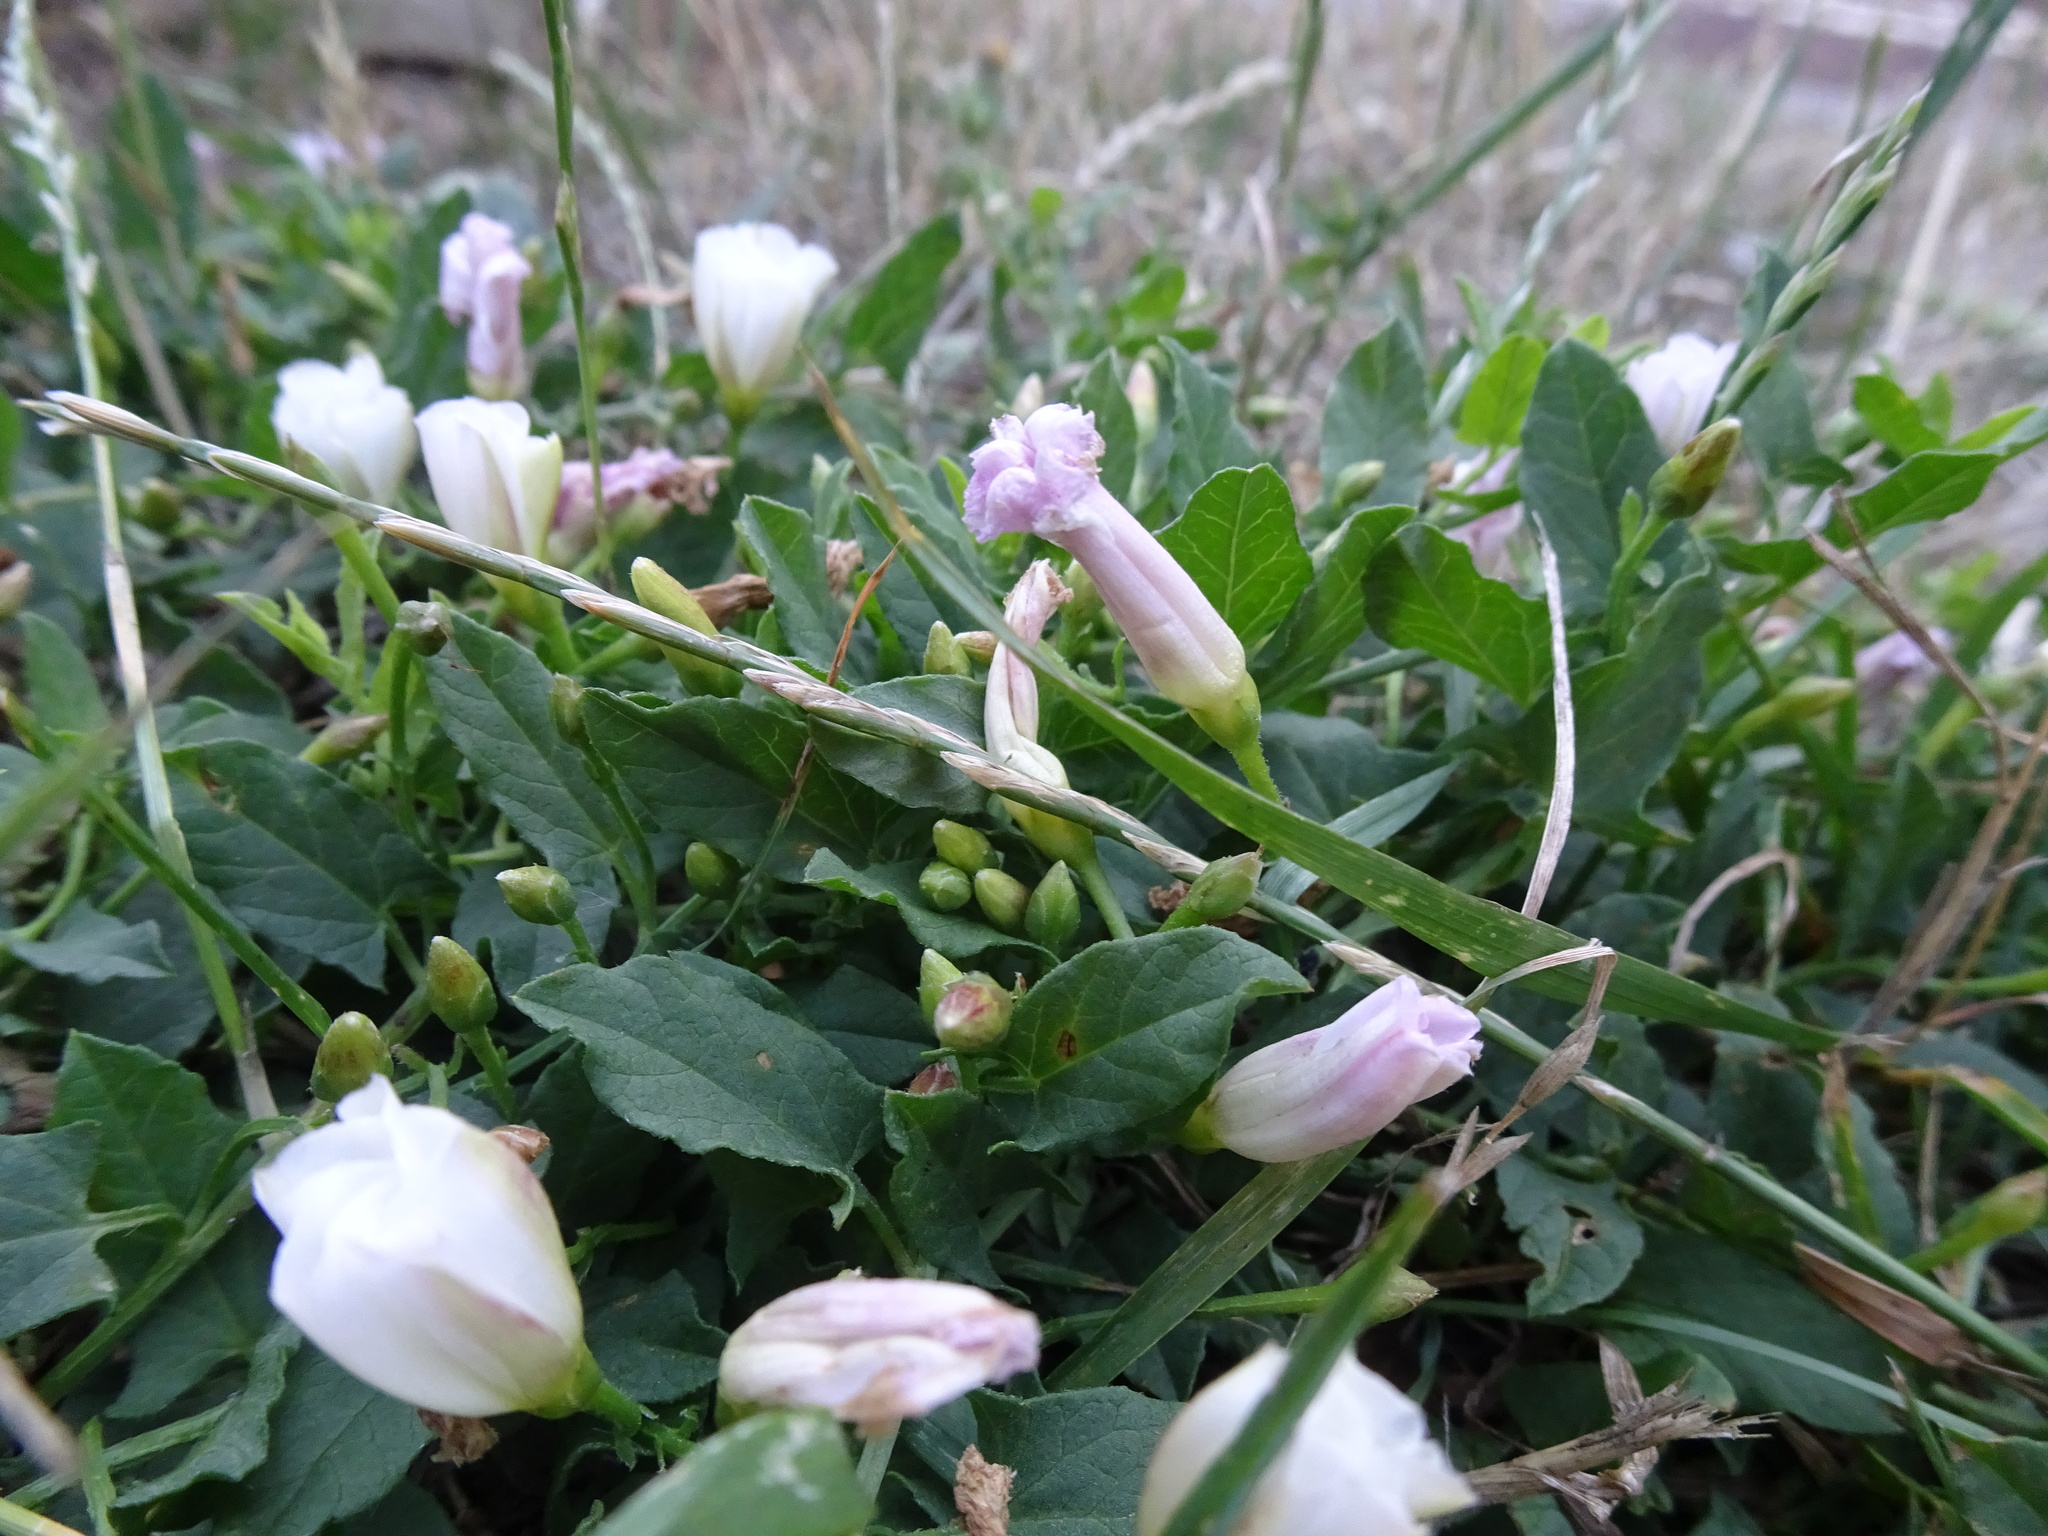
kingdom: Plantae
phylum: Tracheophyta
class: Magnoliopsida
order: Solanales
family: Convolvulaceae
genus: Convolvulus
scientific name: Convolvulus arvensis
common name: Field bindweed
